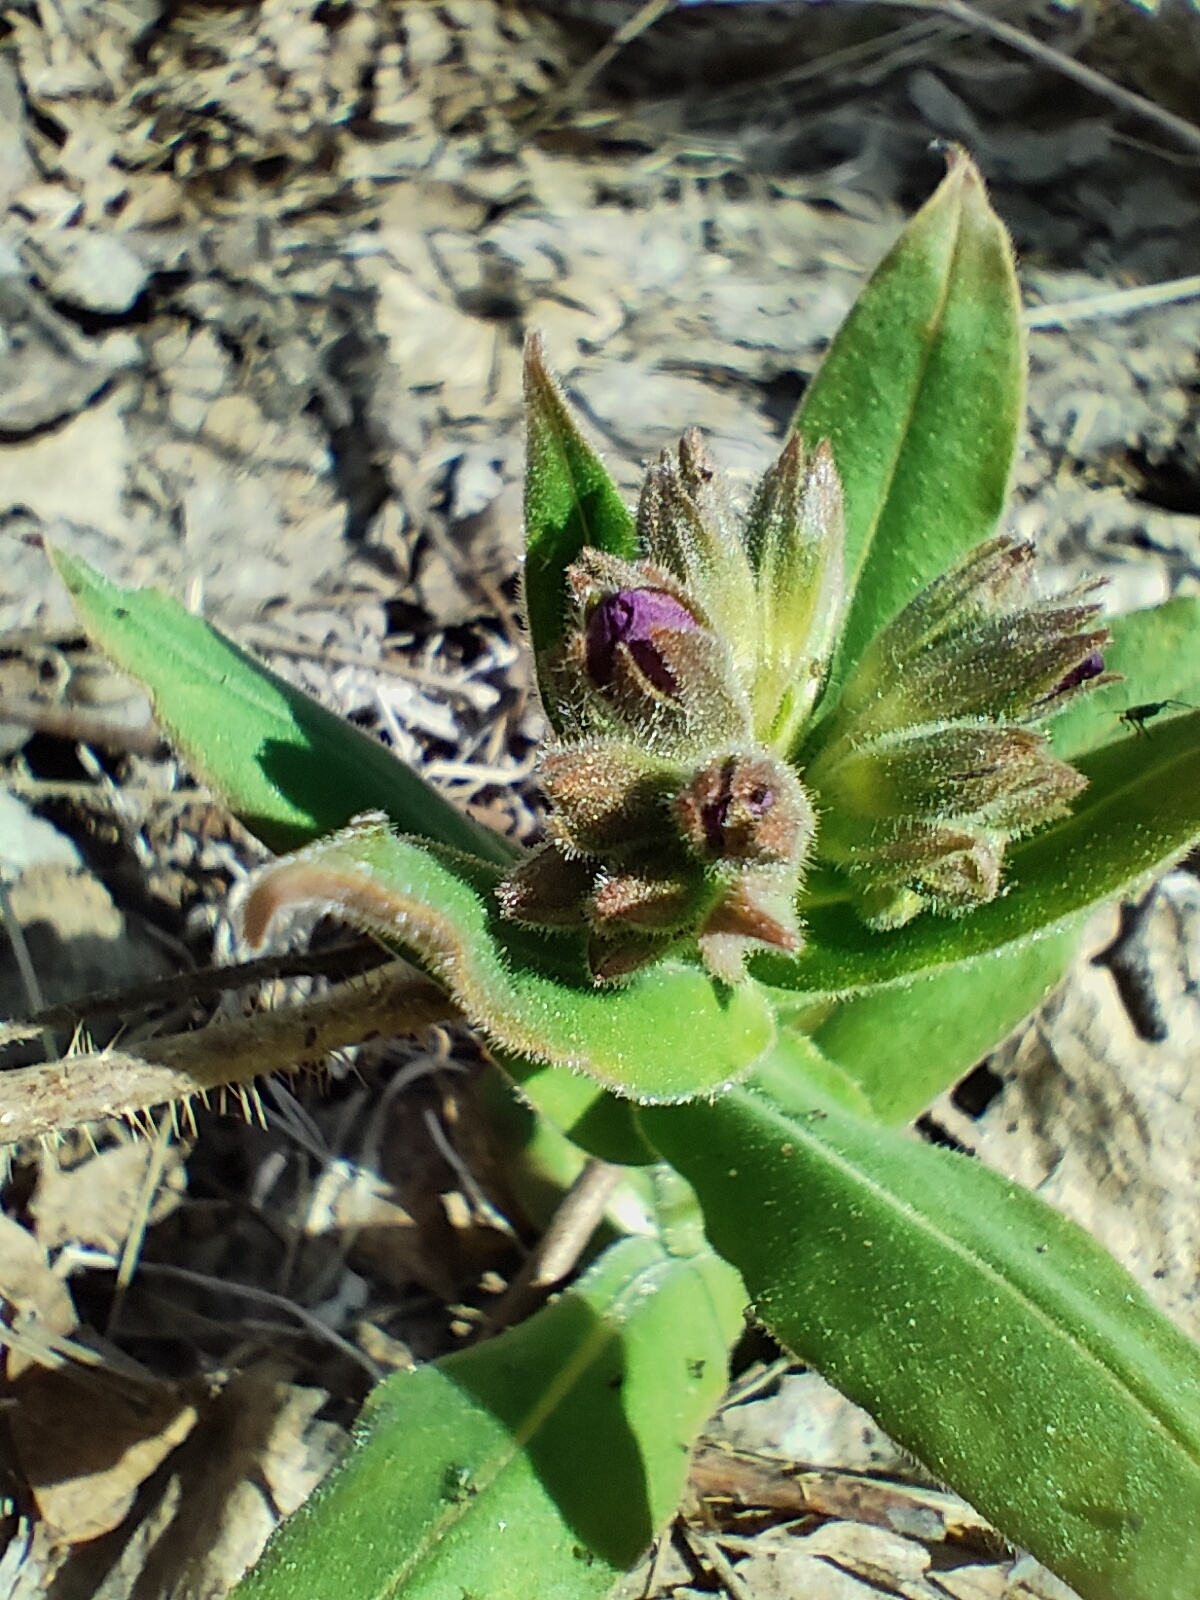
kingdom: Plantae
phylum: Tracheophyta
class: Magnoliopsida
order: Boraginales
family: Boraginaceae
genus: Pulmonaria
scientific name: Pulmonaria mollis
